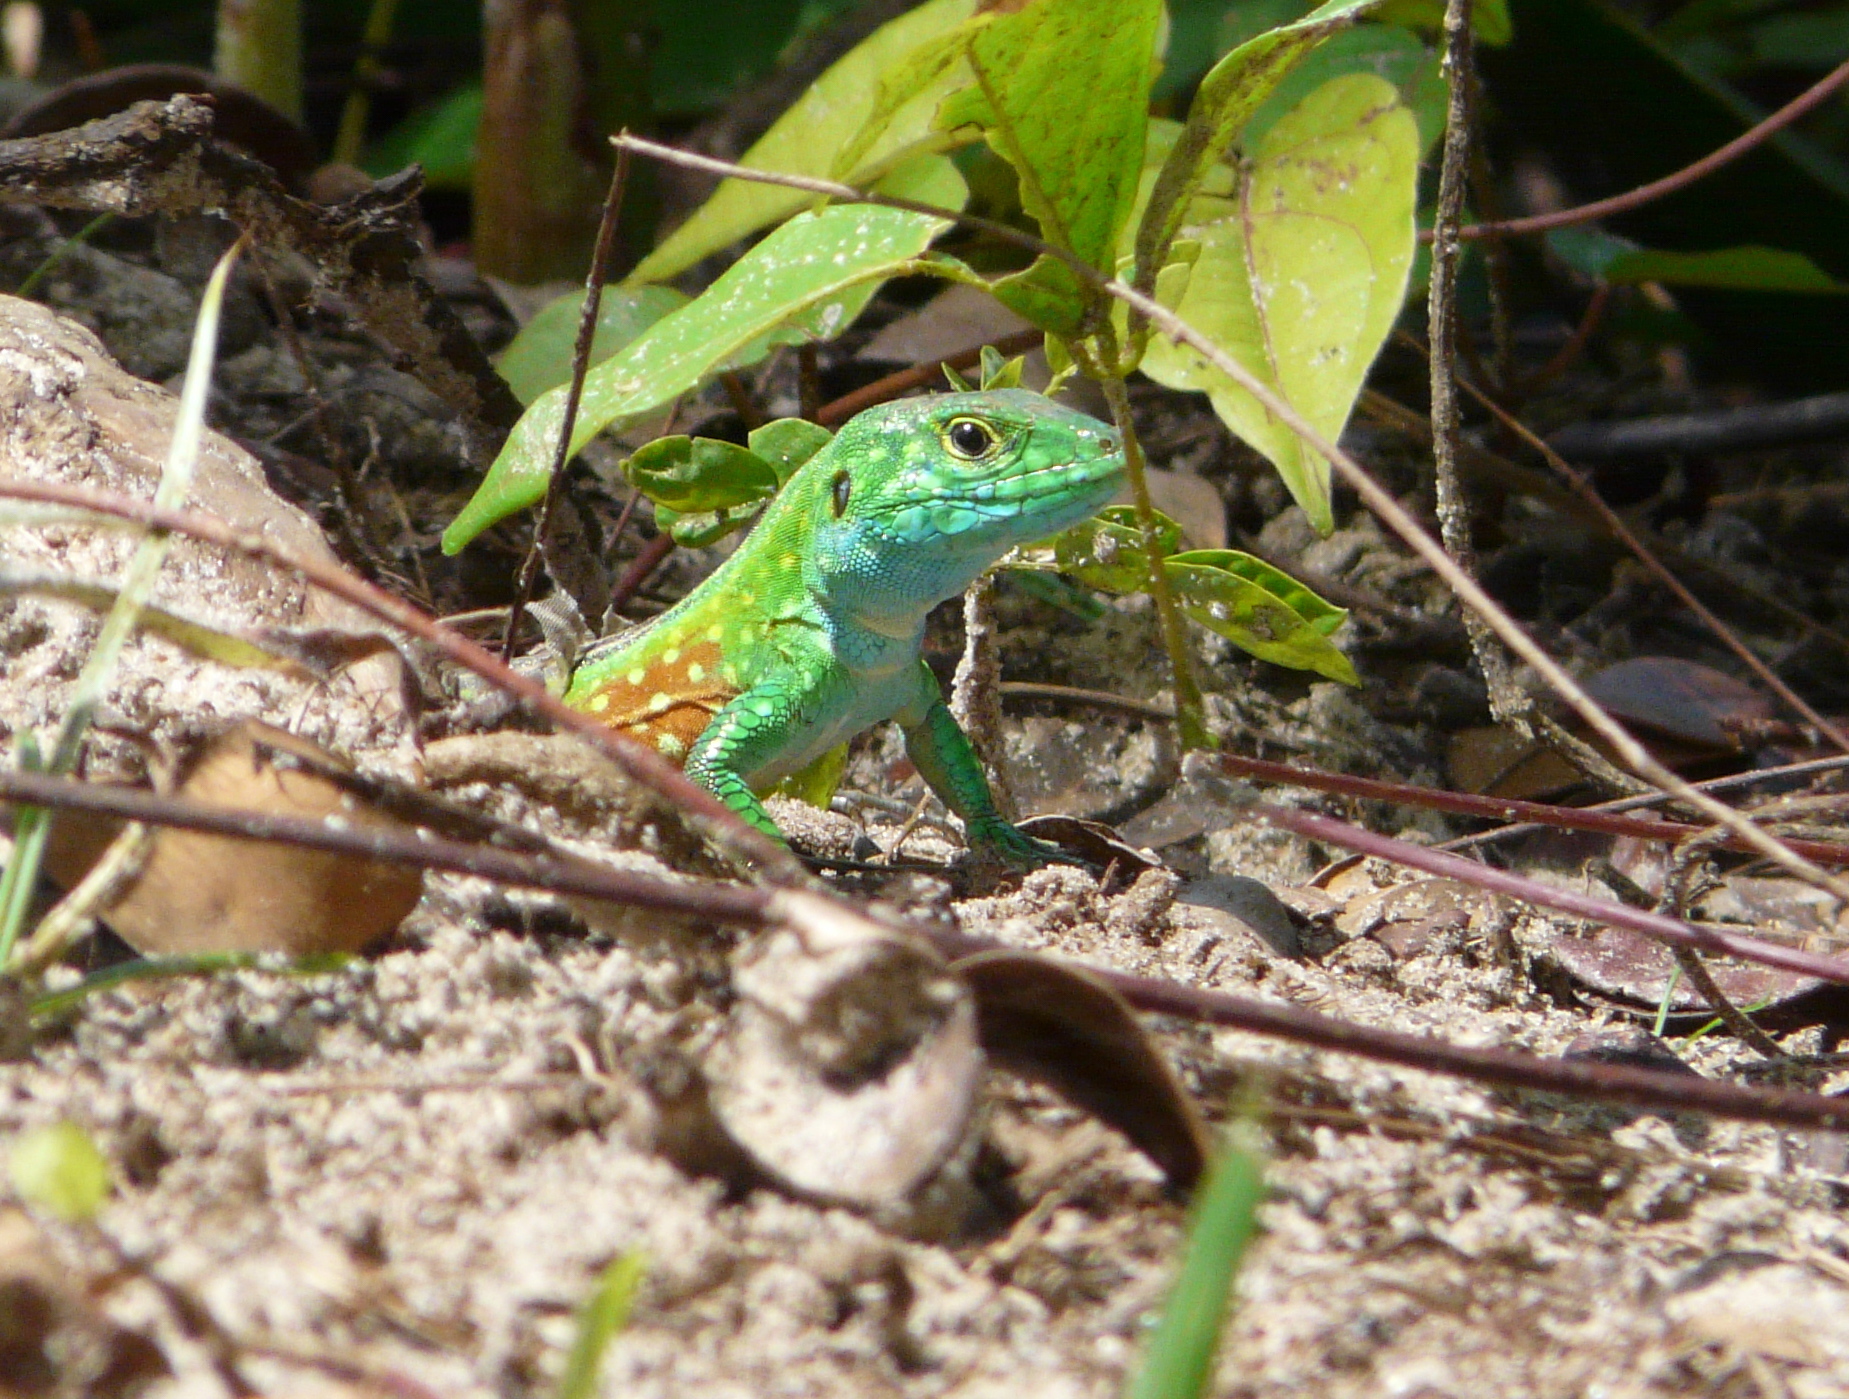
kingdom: Animalia
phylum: Chordata
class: Squamata
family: Teiidae
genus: Cnemidophorus
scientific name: Cnemidophorus lemniscatus
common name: Rainbow whiptail
